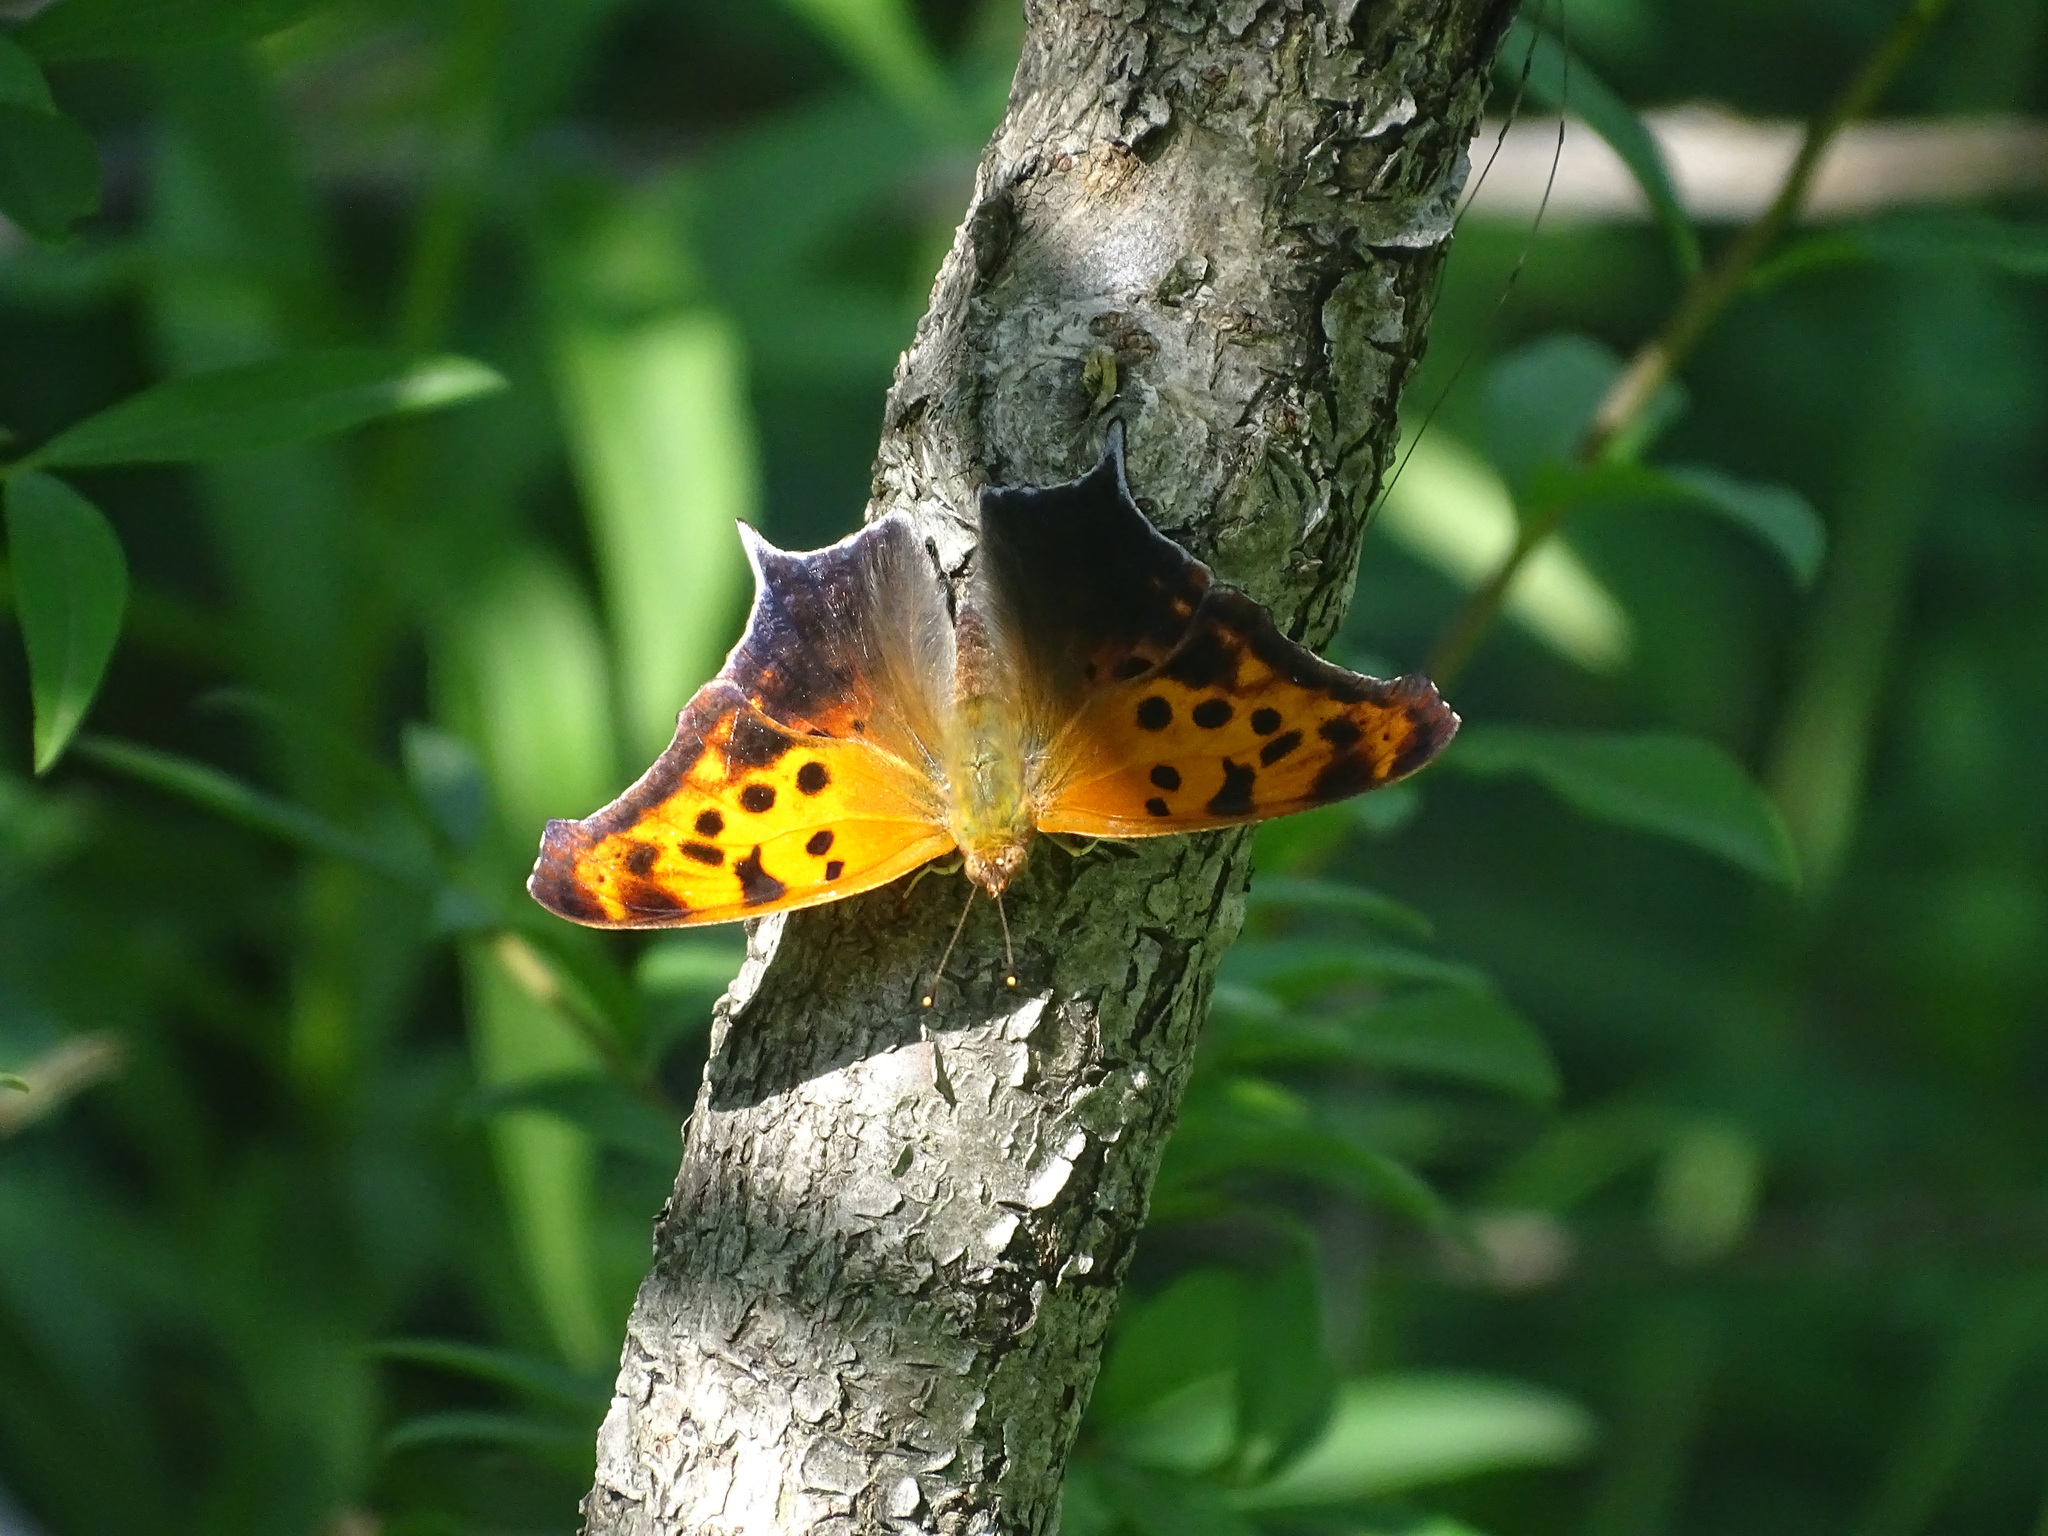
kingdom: Animalia
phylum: Arthropoda
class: Insecta
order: Lepidoptera
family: Nymphalidae
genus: Polygonia
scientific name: Polygonia interrogationis
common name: Question mark
